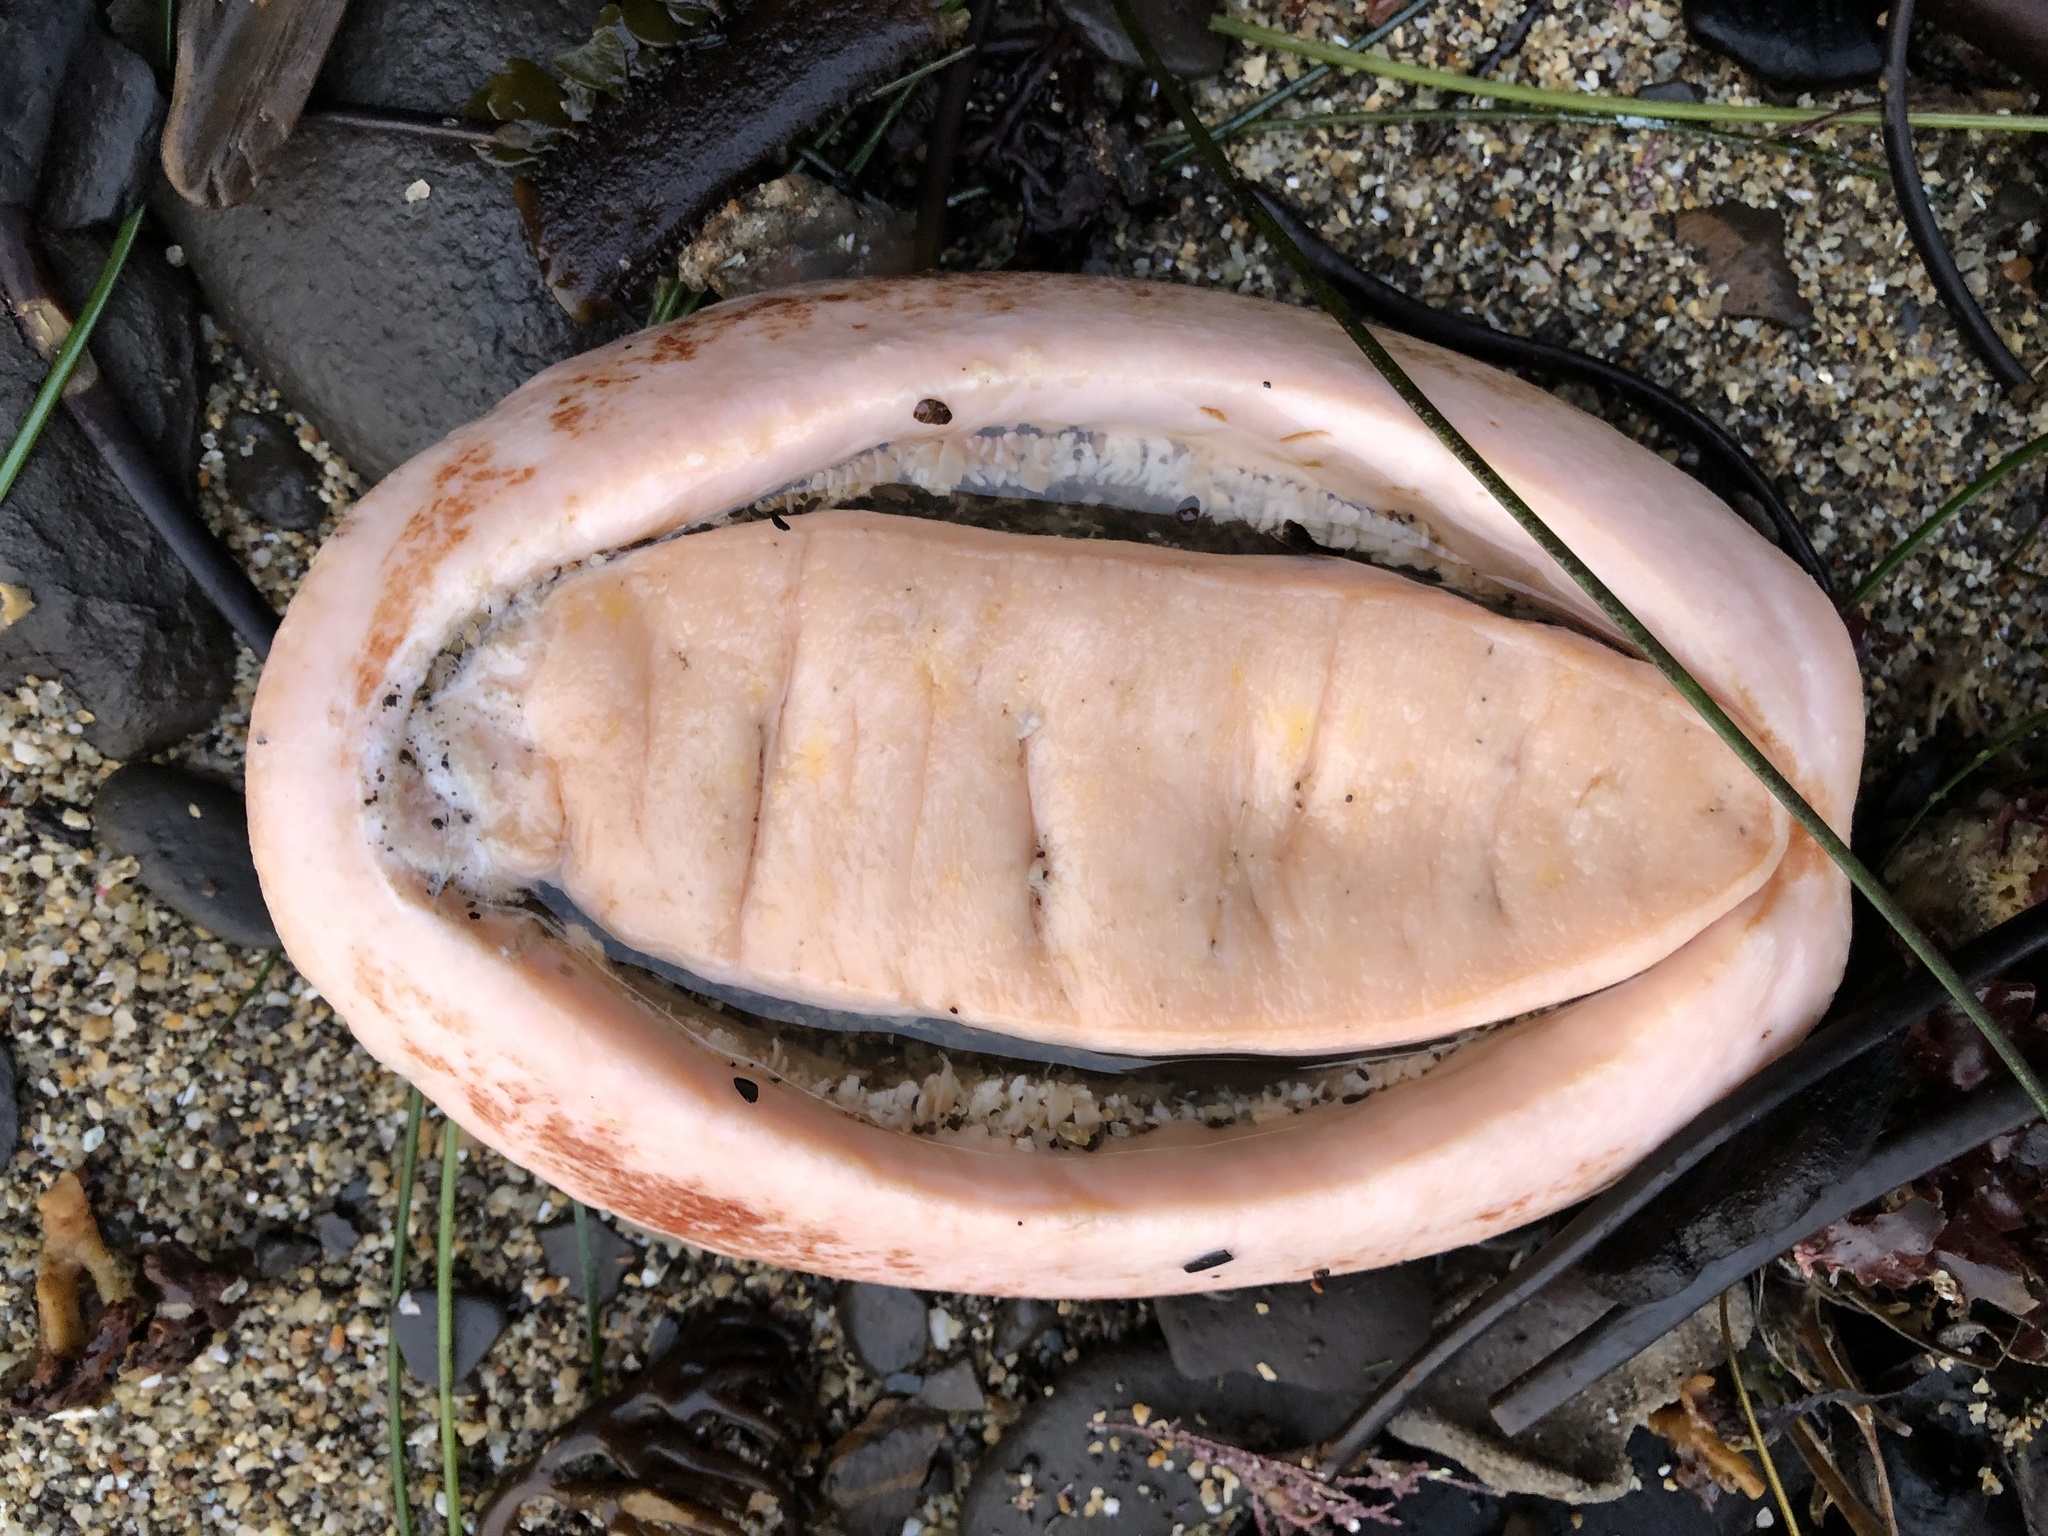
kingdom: Animalia
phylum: Mollusca
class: Polyplacophora
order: Chitonida
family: Acanthochitonidae
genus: Cryptochiton
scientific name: Cryptochiton stelleri
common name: Giant pacific chiton
